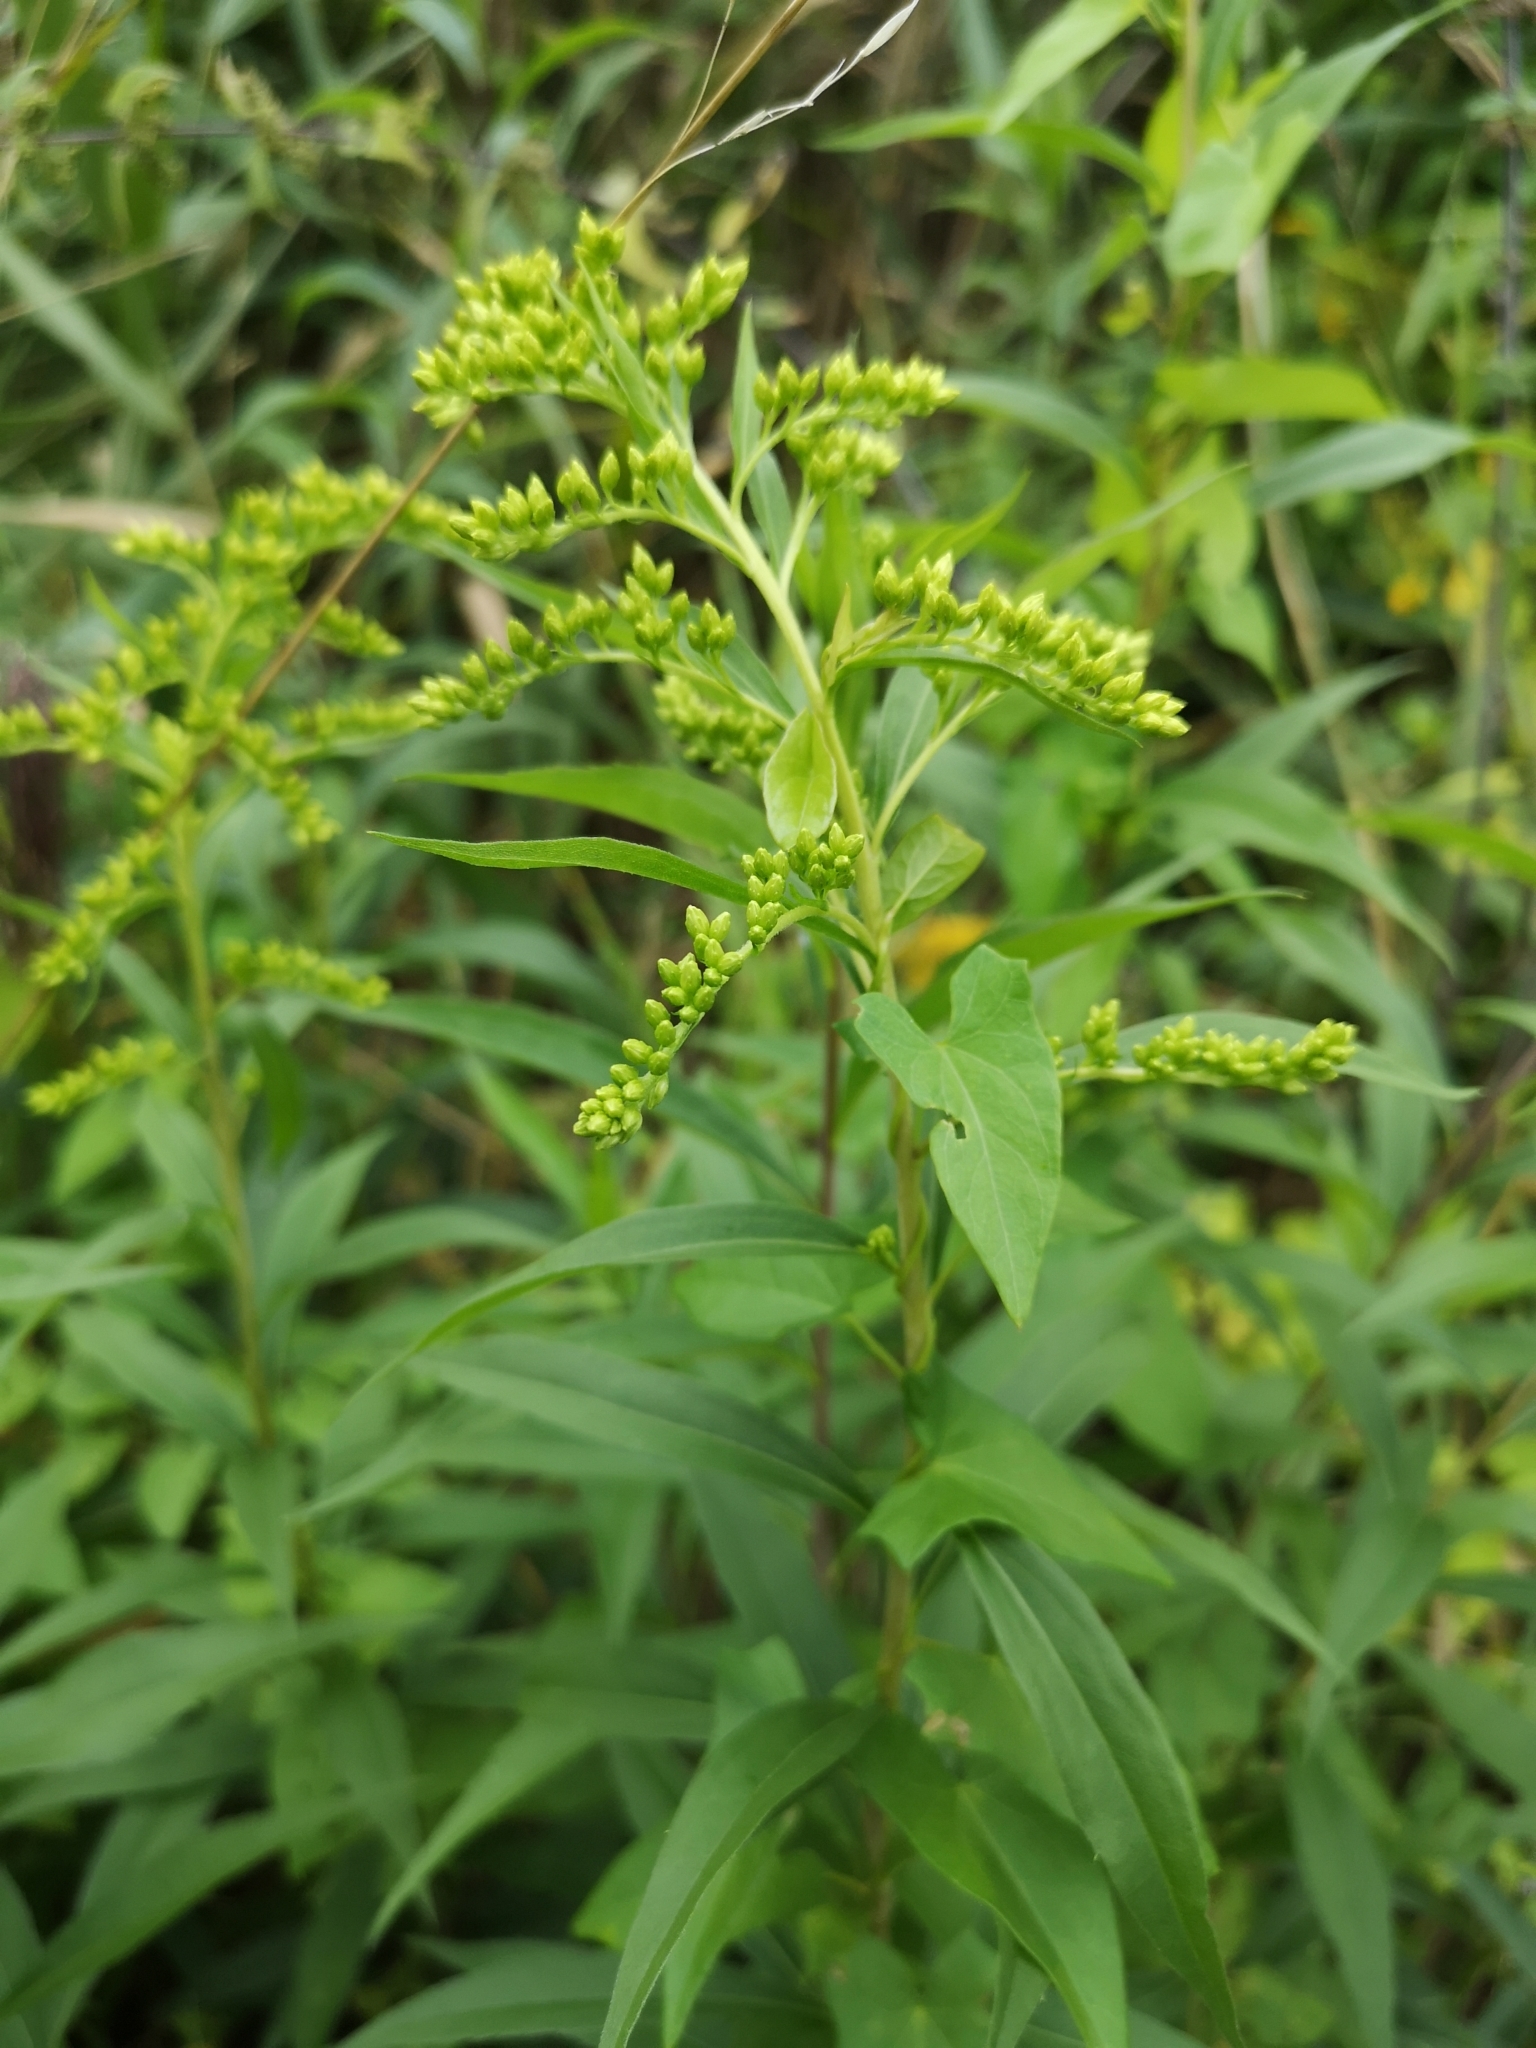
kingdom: Plantae
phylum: Tracheophyta
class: Magnoliopsida
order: Asterales
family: Asteraceae
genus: Solidago
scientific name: Solidago gigantea
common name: Giant goldenrod
